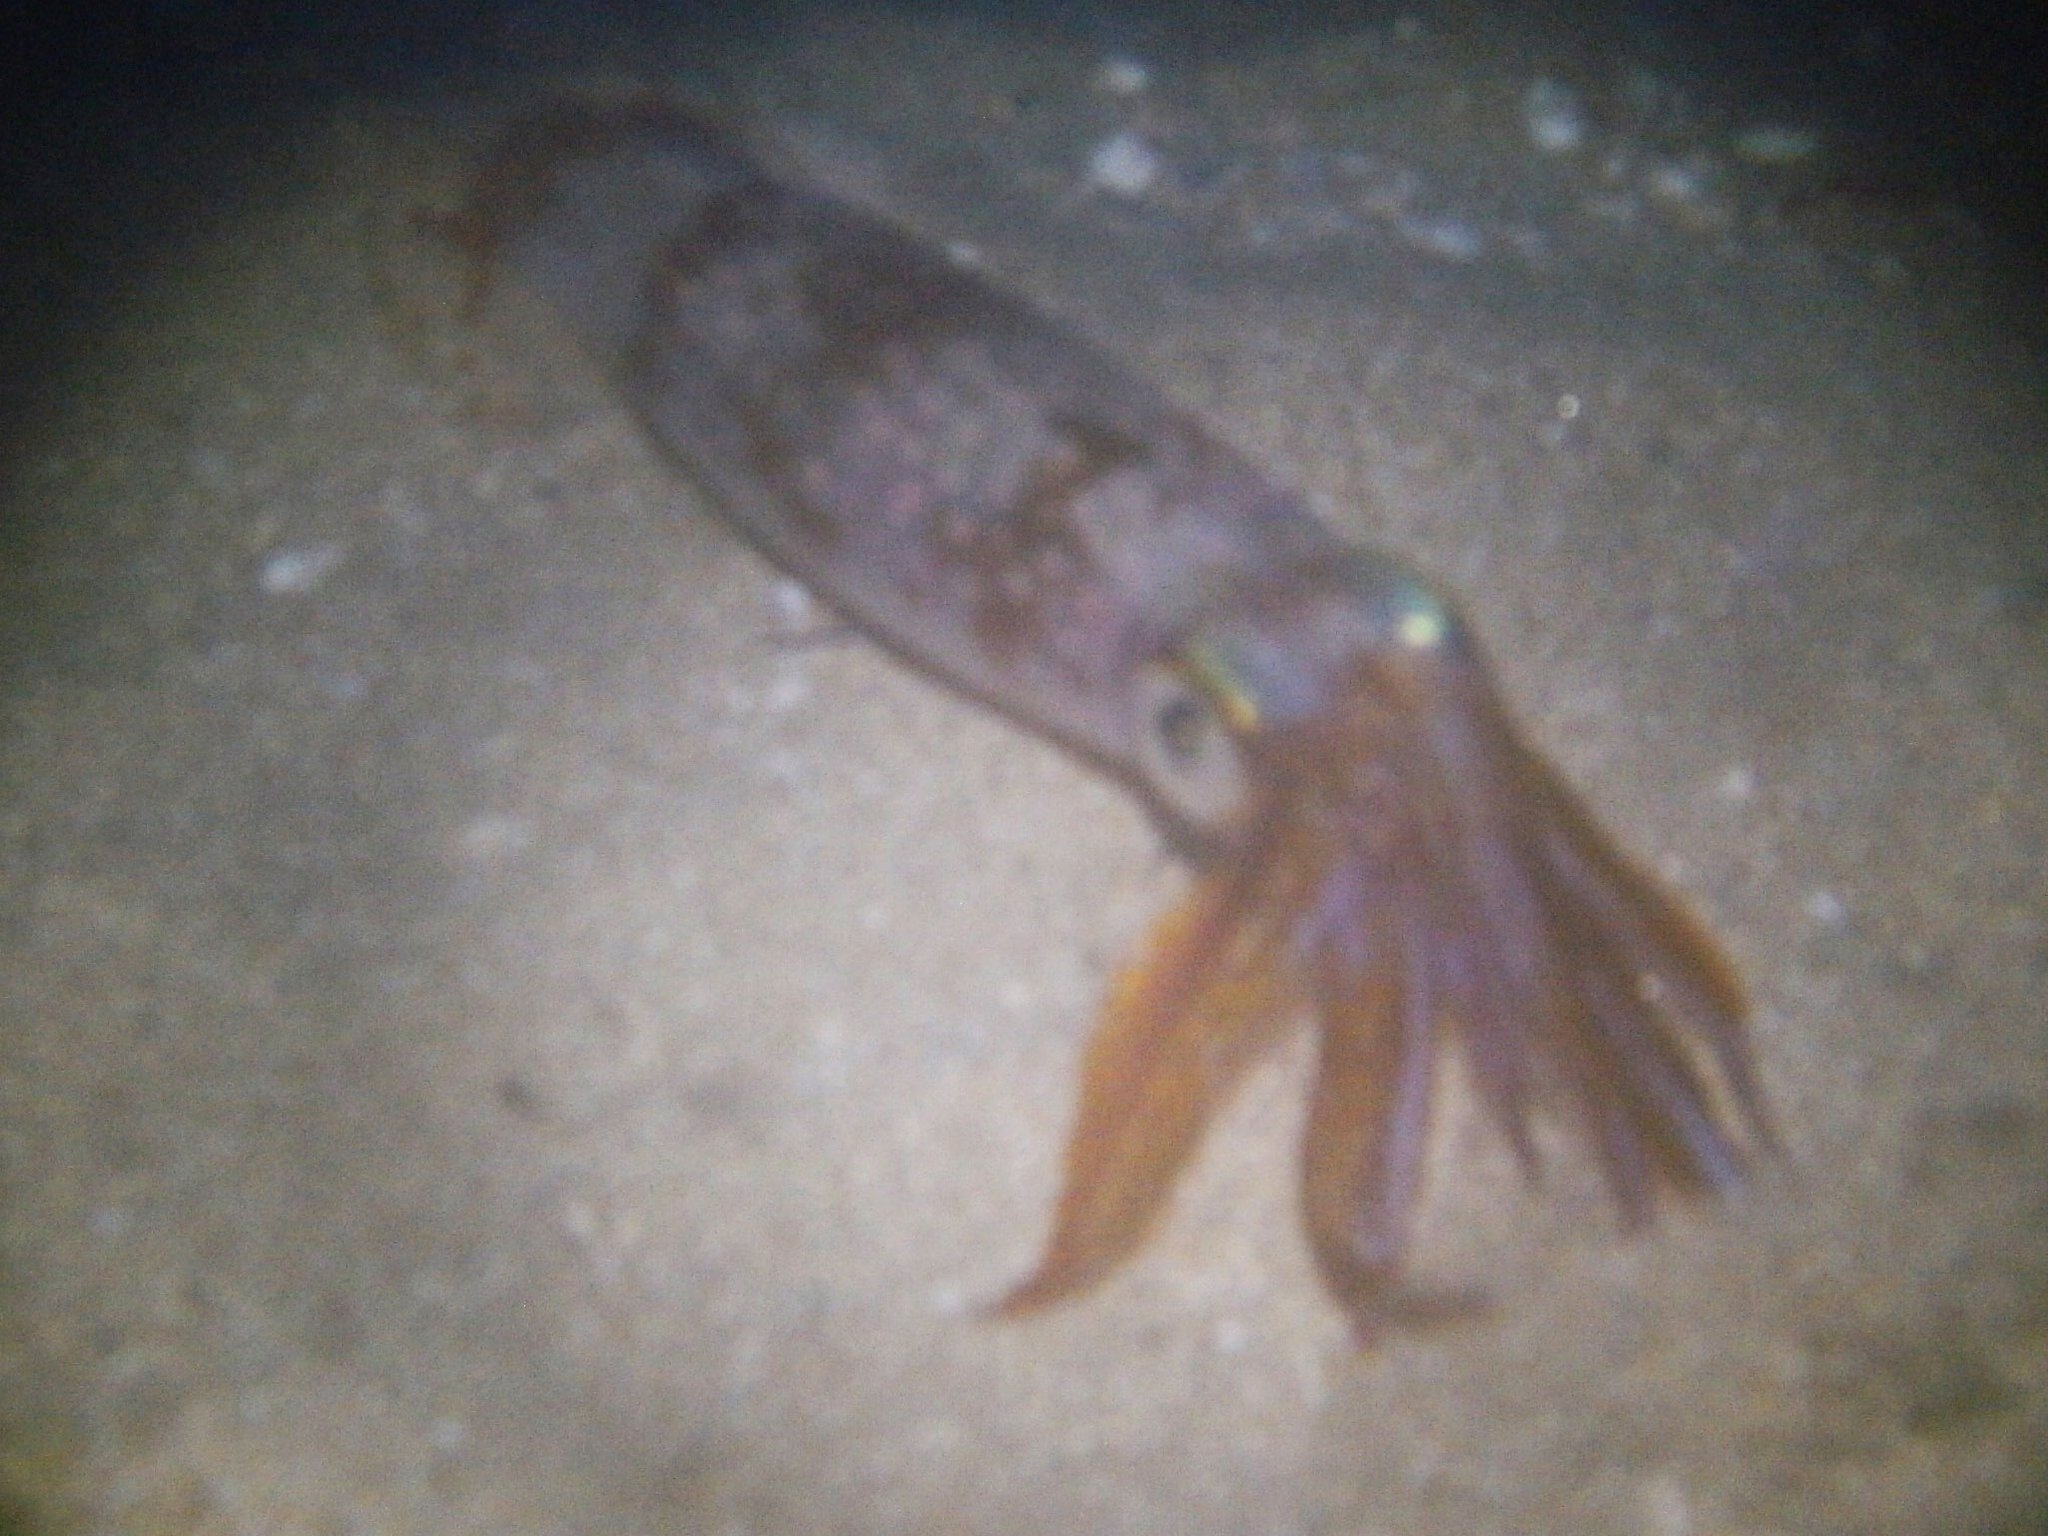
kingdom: Animalia
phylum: Mollusca
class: Cephalopoda
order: Myopsida
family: Loliginidae
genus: Doryteuthis
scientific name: Doryteuthis pealeii
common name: Long-finned inshore squid
